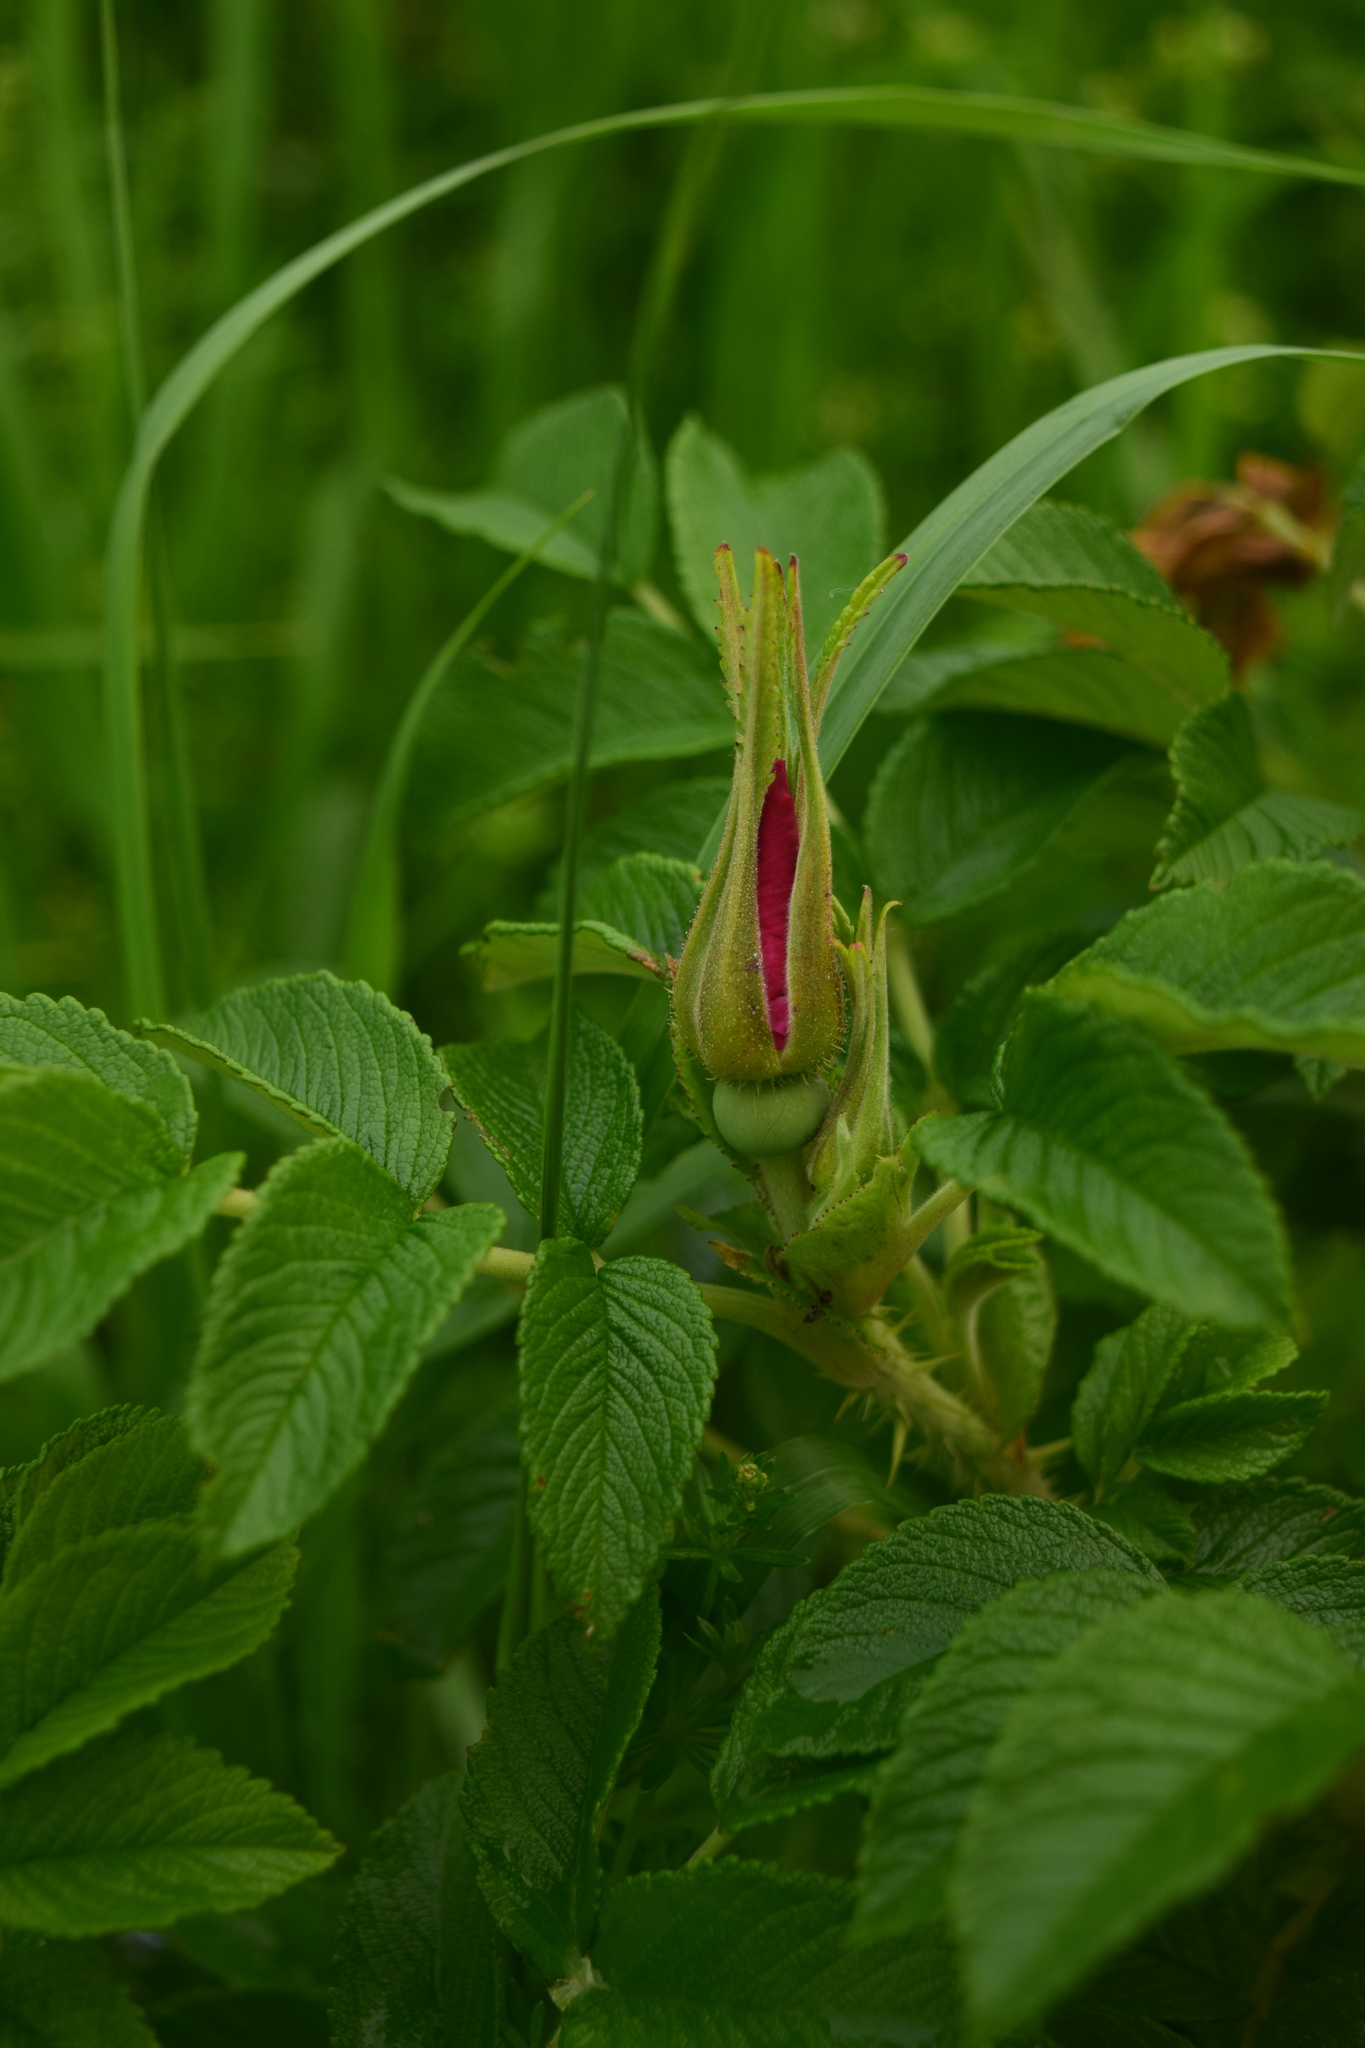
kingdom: Plantae
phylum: Tracheophyta
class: Magnoliopsida
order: Rosales
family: Rosaceae
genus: Rosa
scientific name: Rosa rugosa
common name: Japanese rose
